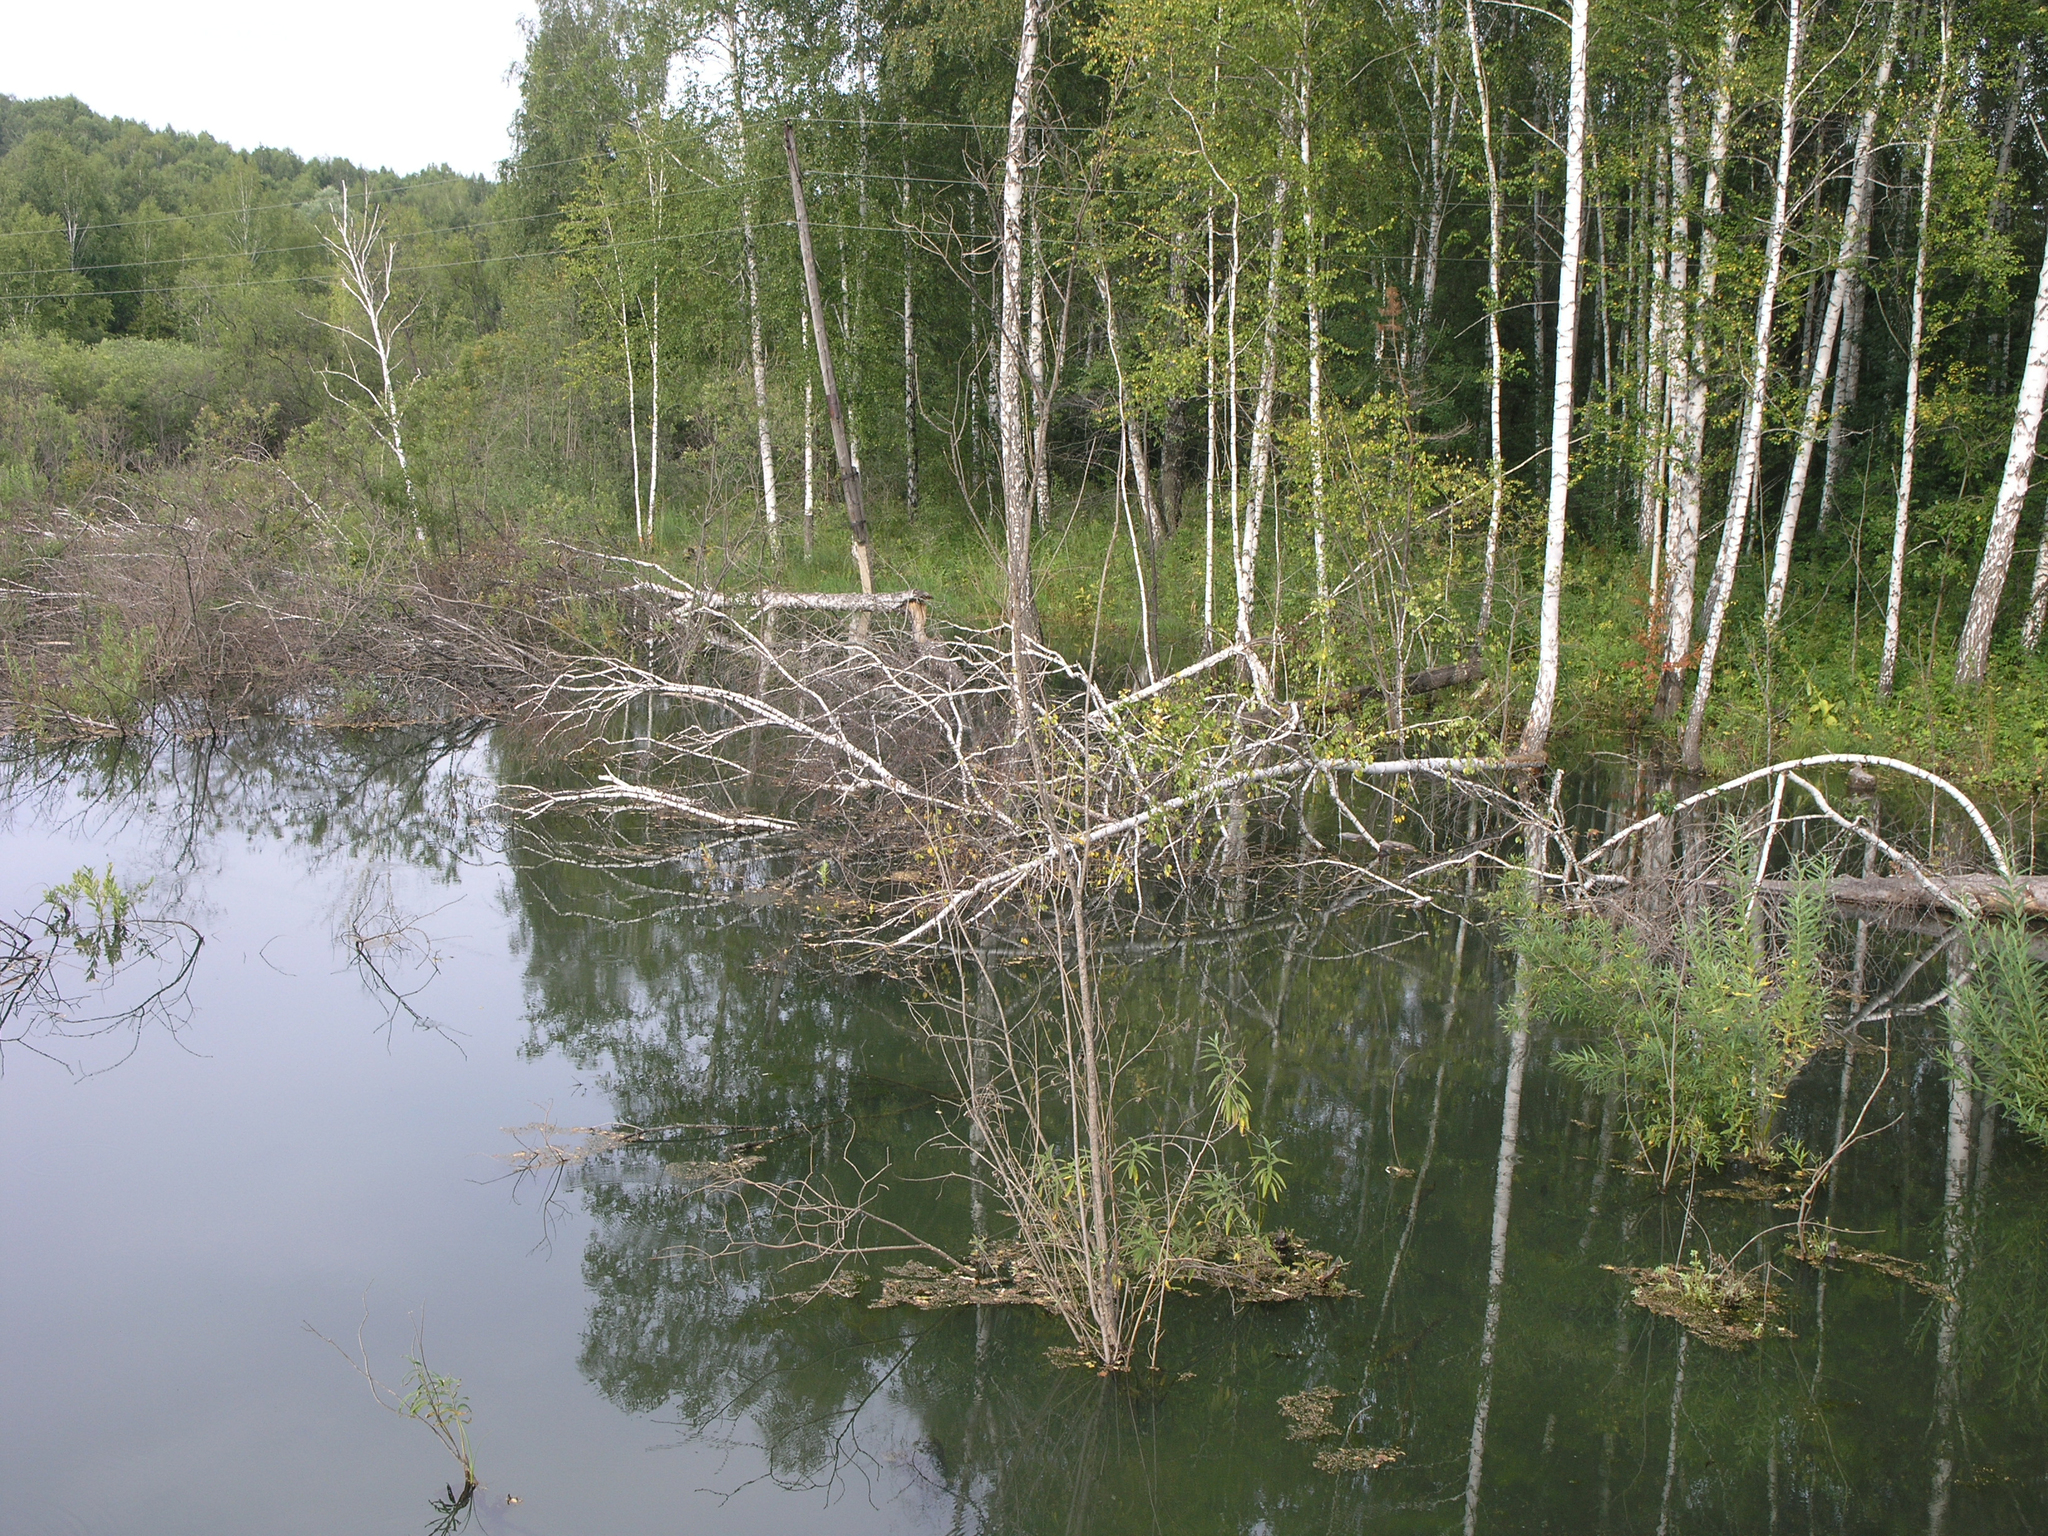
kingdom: Plantae
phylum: Tracheophyta
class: Magnoliopsida
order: Fagales
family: Betulaceae
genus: Betula
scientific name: Betula pendula
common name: Silver birch
